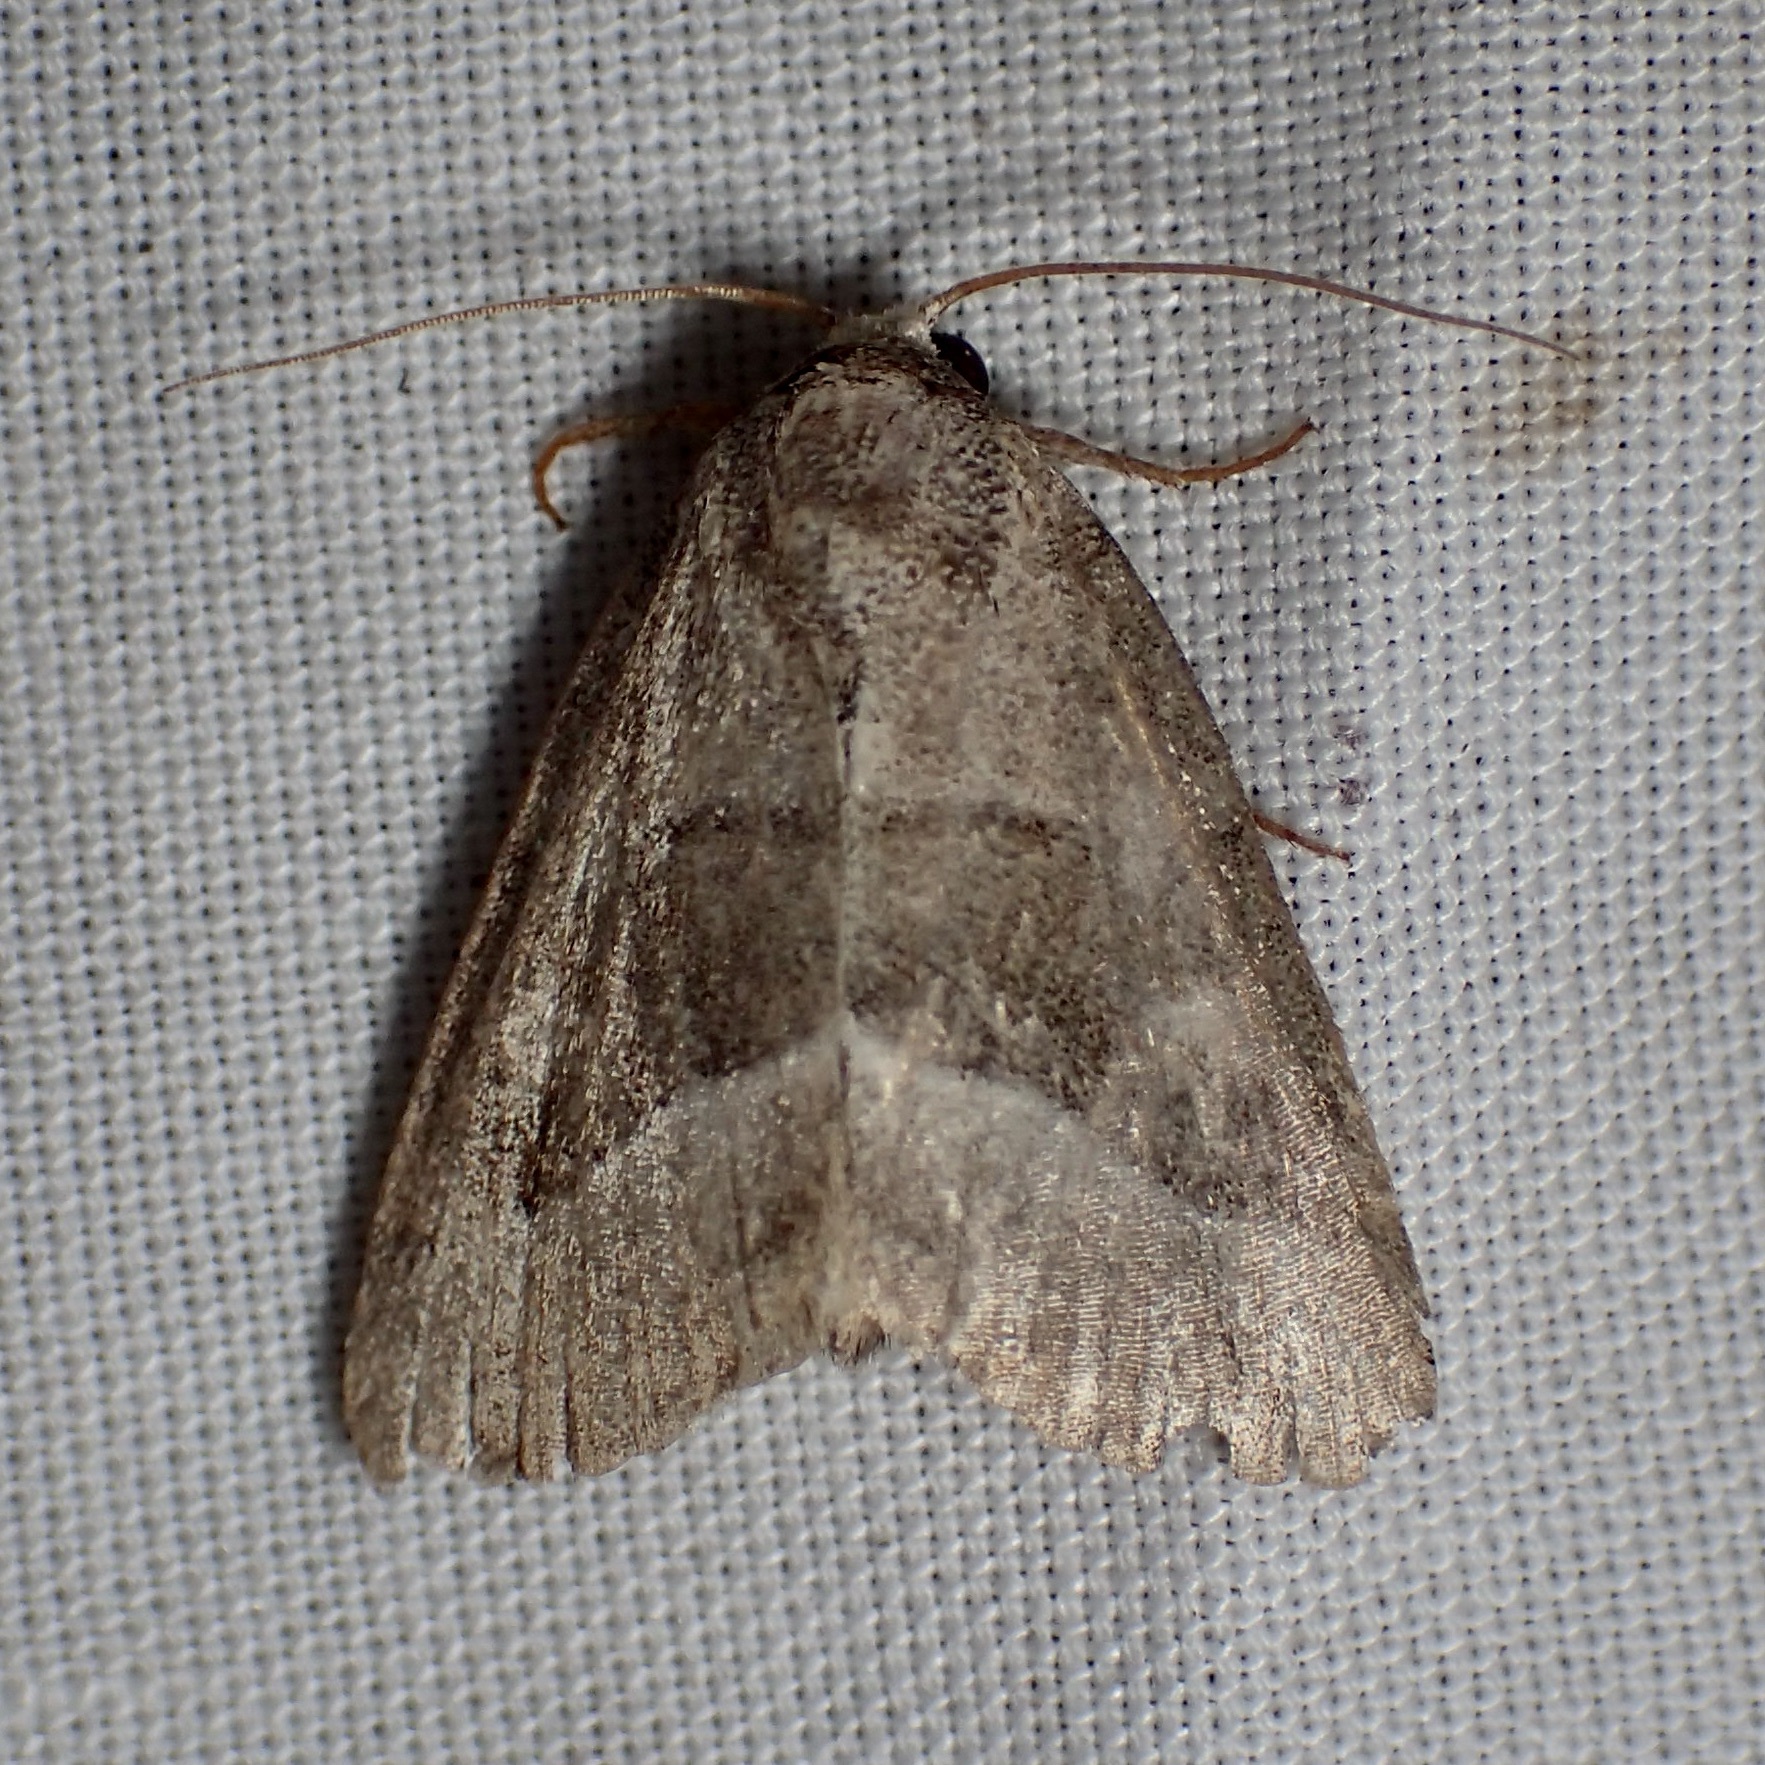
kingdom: Animalia
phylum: Arthropoda
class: Insecta
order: Lepidoptera
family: Noctuidae
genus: Ogdoconta
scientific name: Ogdoconta moreno
